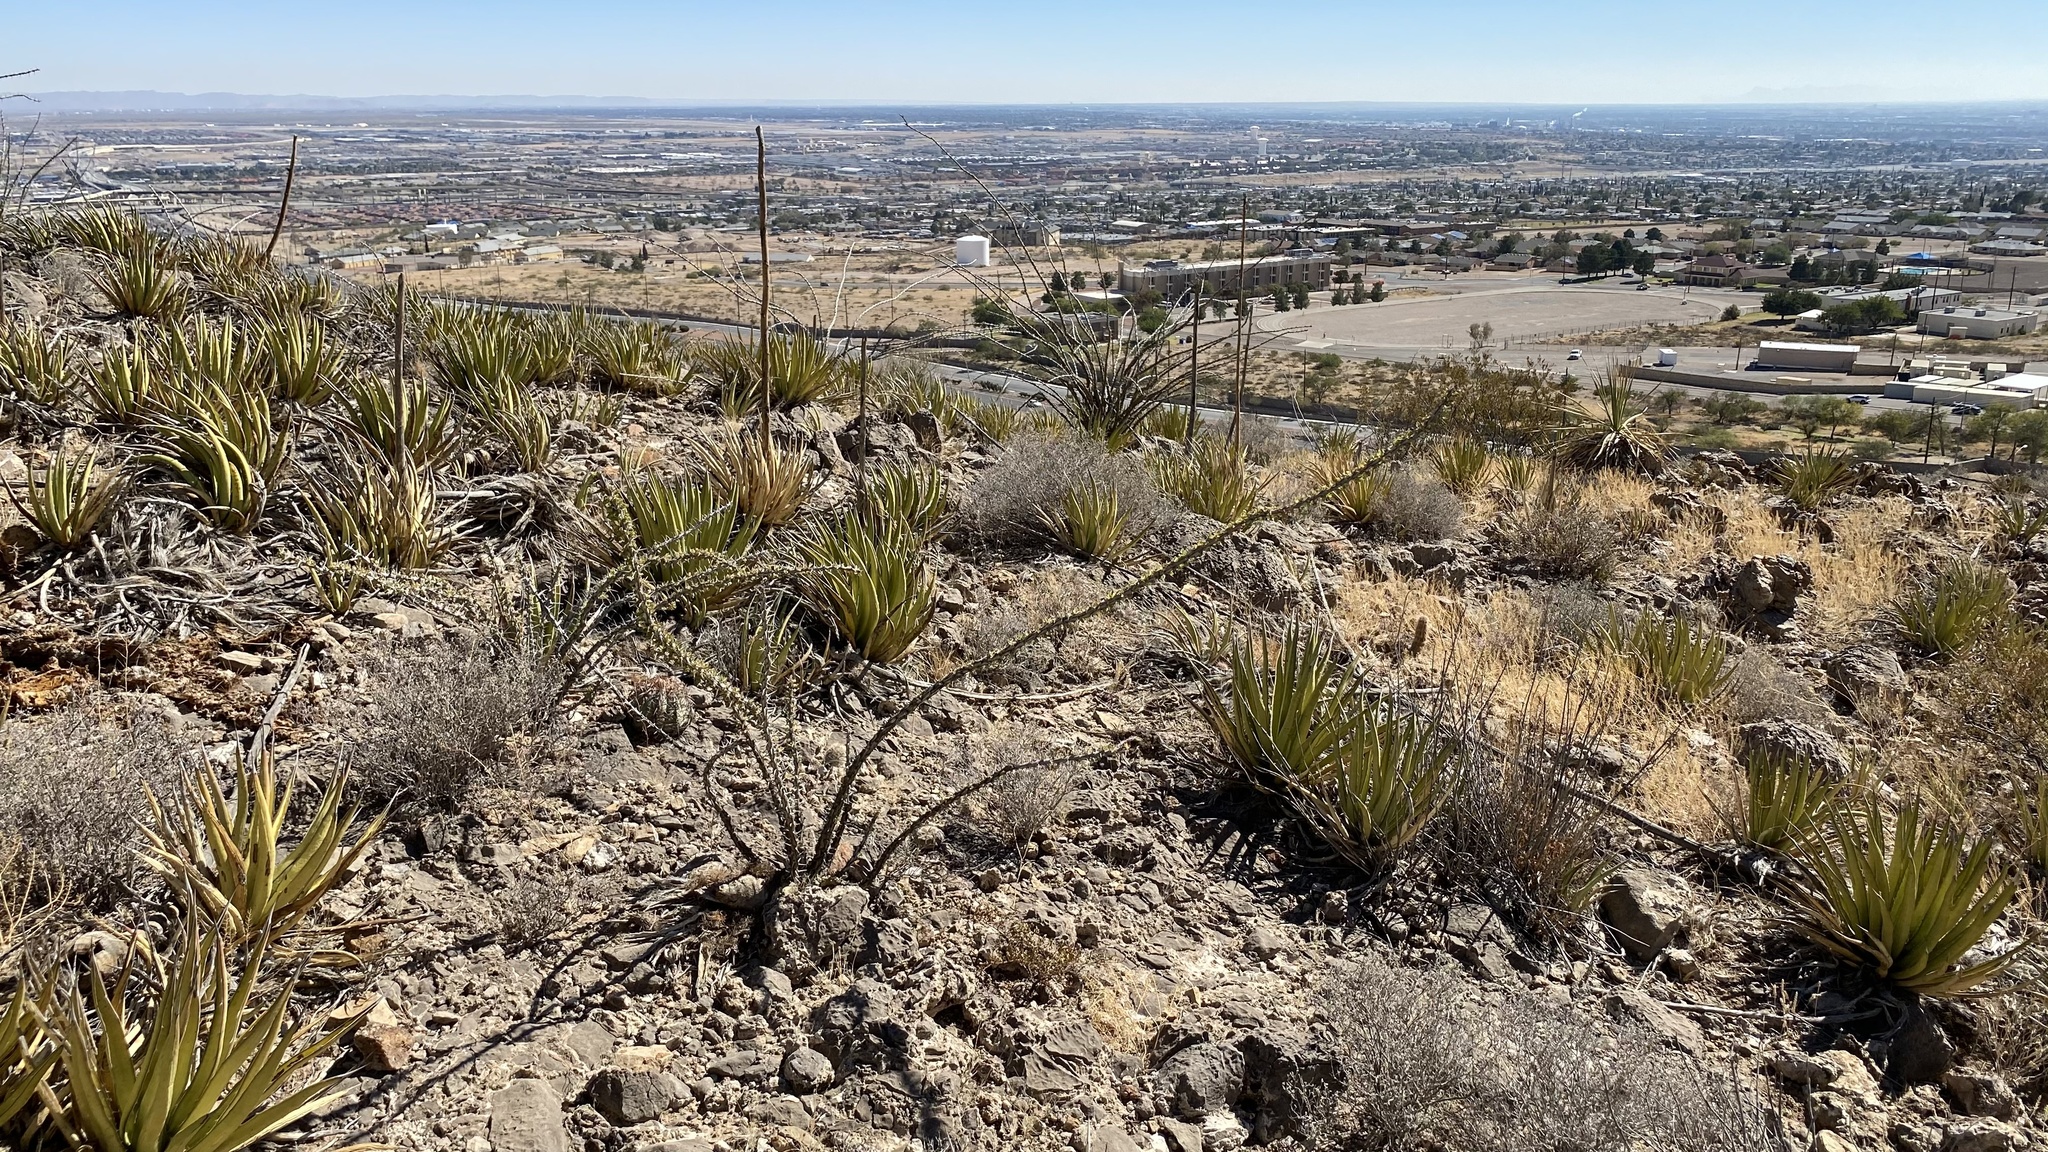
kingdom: Plantae
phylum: Tracheophyta
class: Magnoliopsida
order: Ericales
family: Fouquieriaceae
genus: Fouquieria
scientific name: Fouquieria splendens
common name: Vine-cactus
